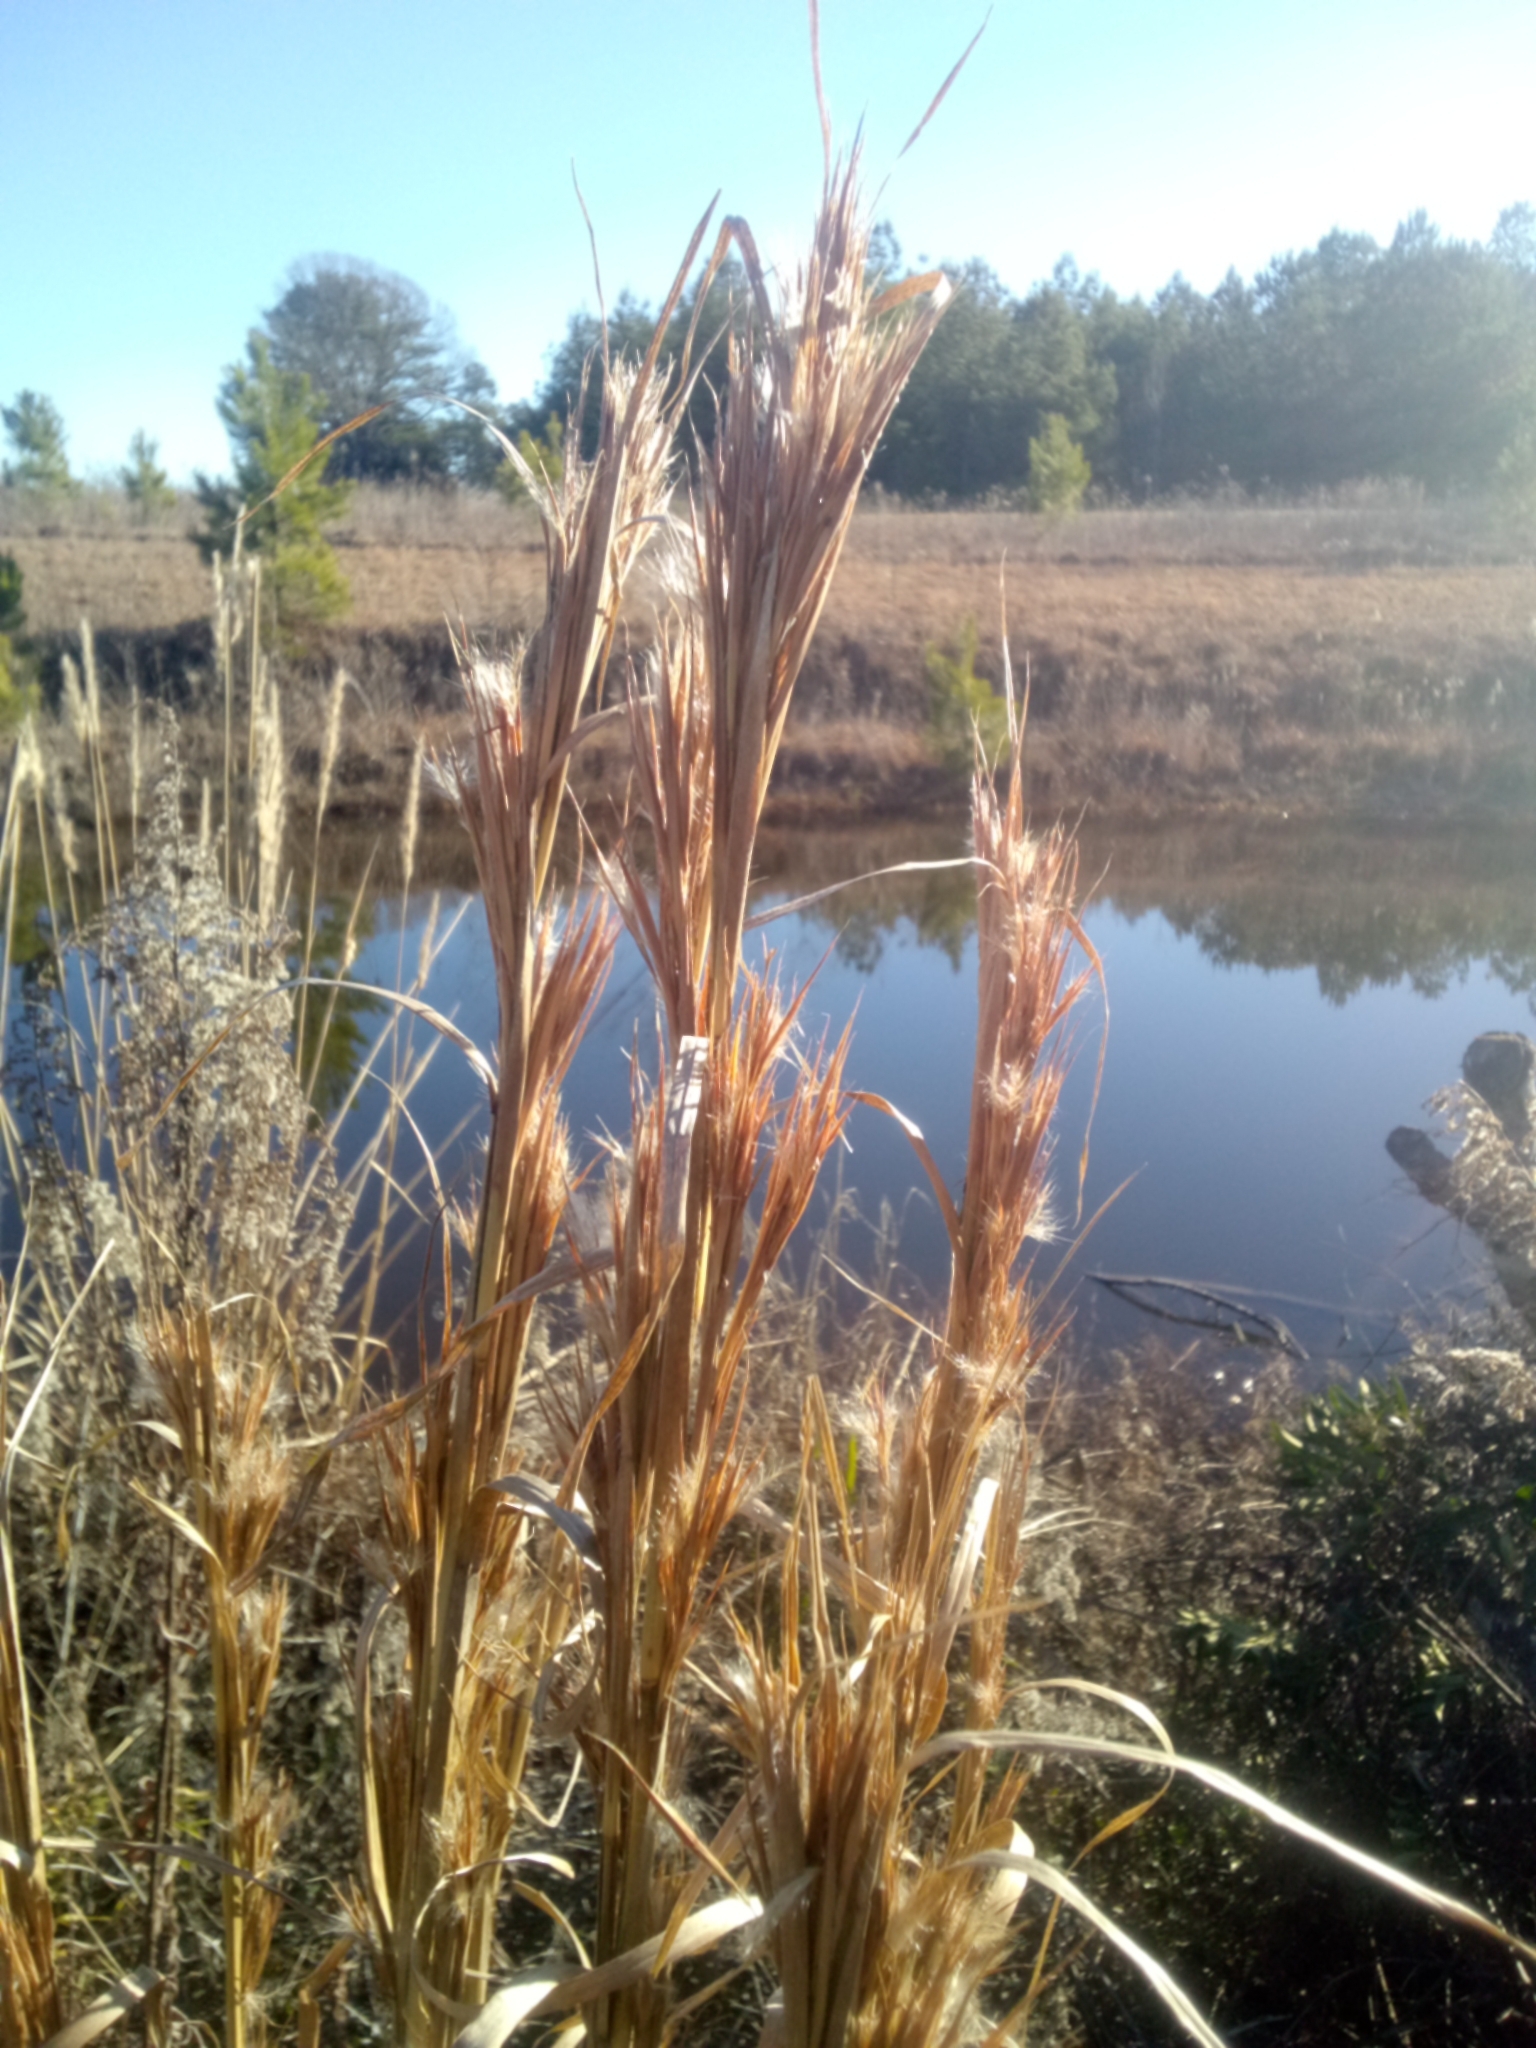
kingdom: Plantae
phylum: Tracheophyta
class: Liliopsida
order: Poales
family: Poaceae
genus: Andropogon
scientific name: Andropogon tenuispatheus
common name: Bushy bluestem
